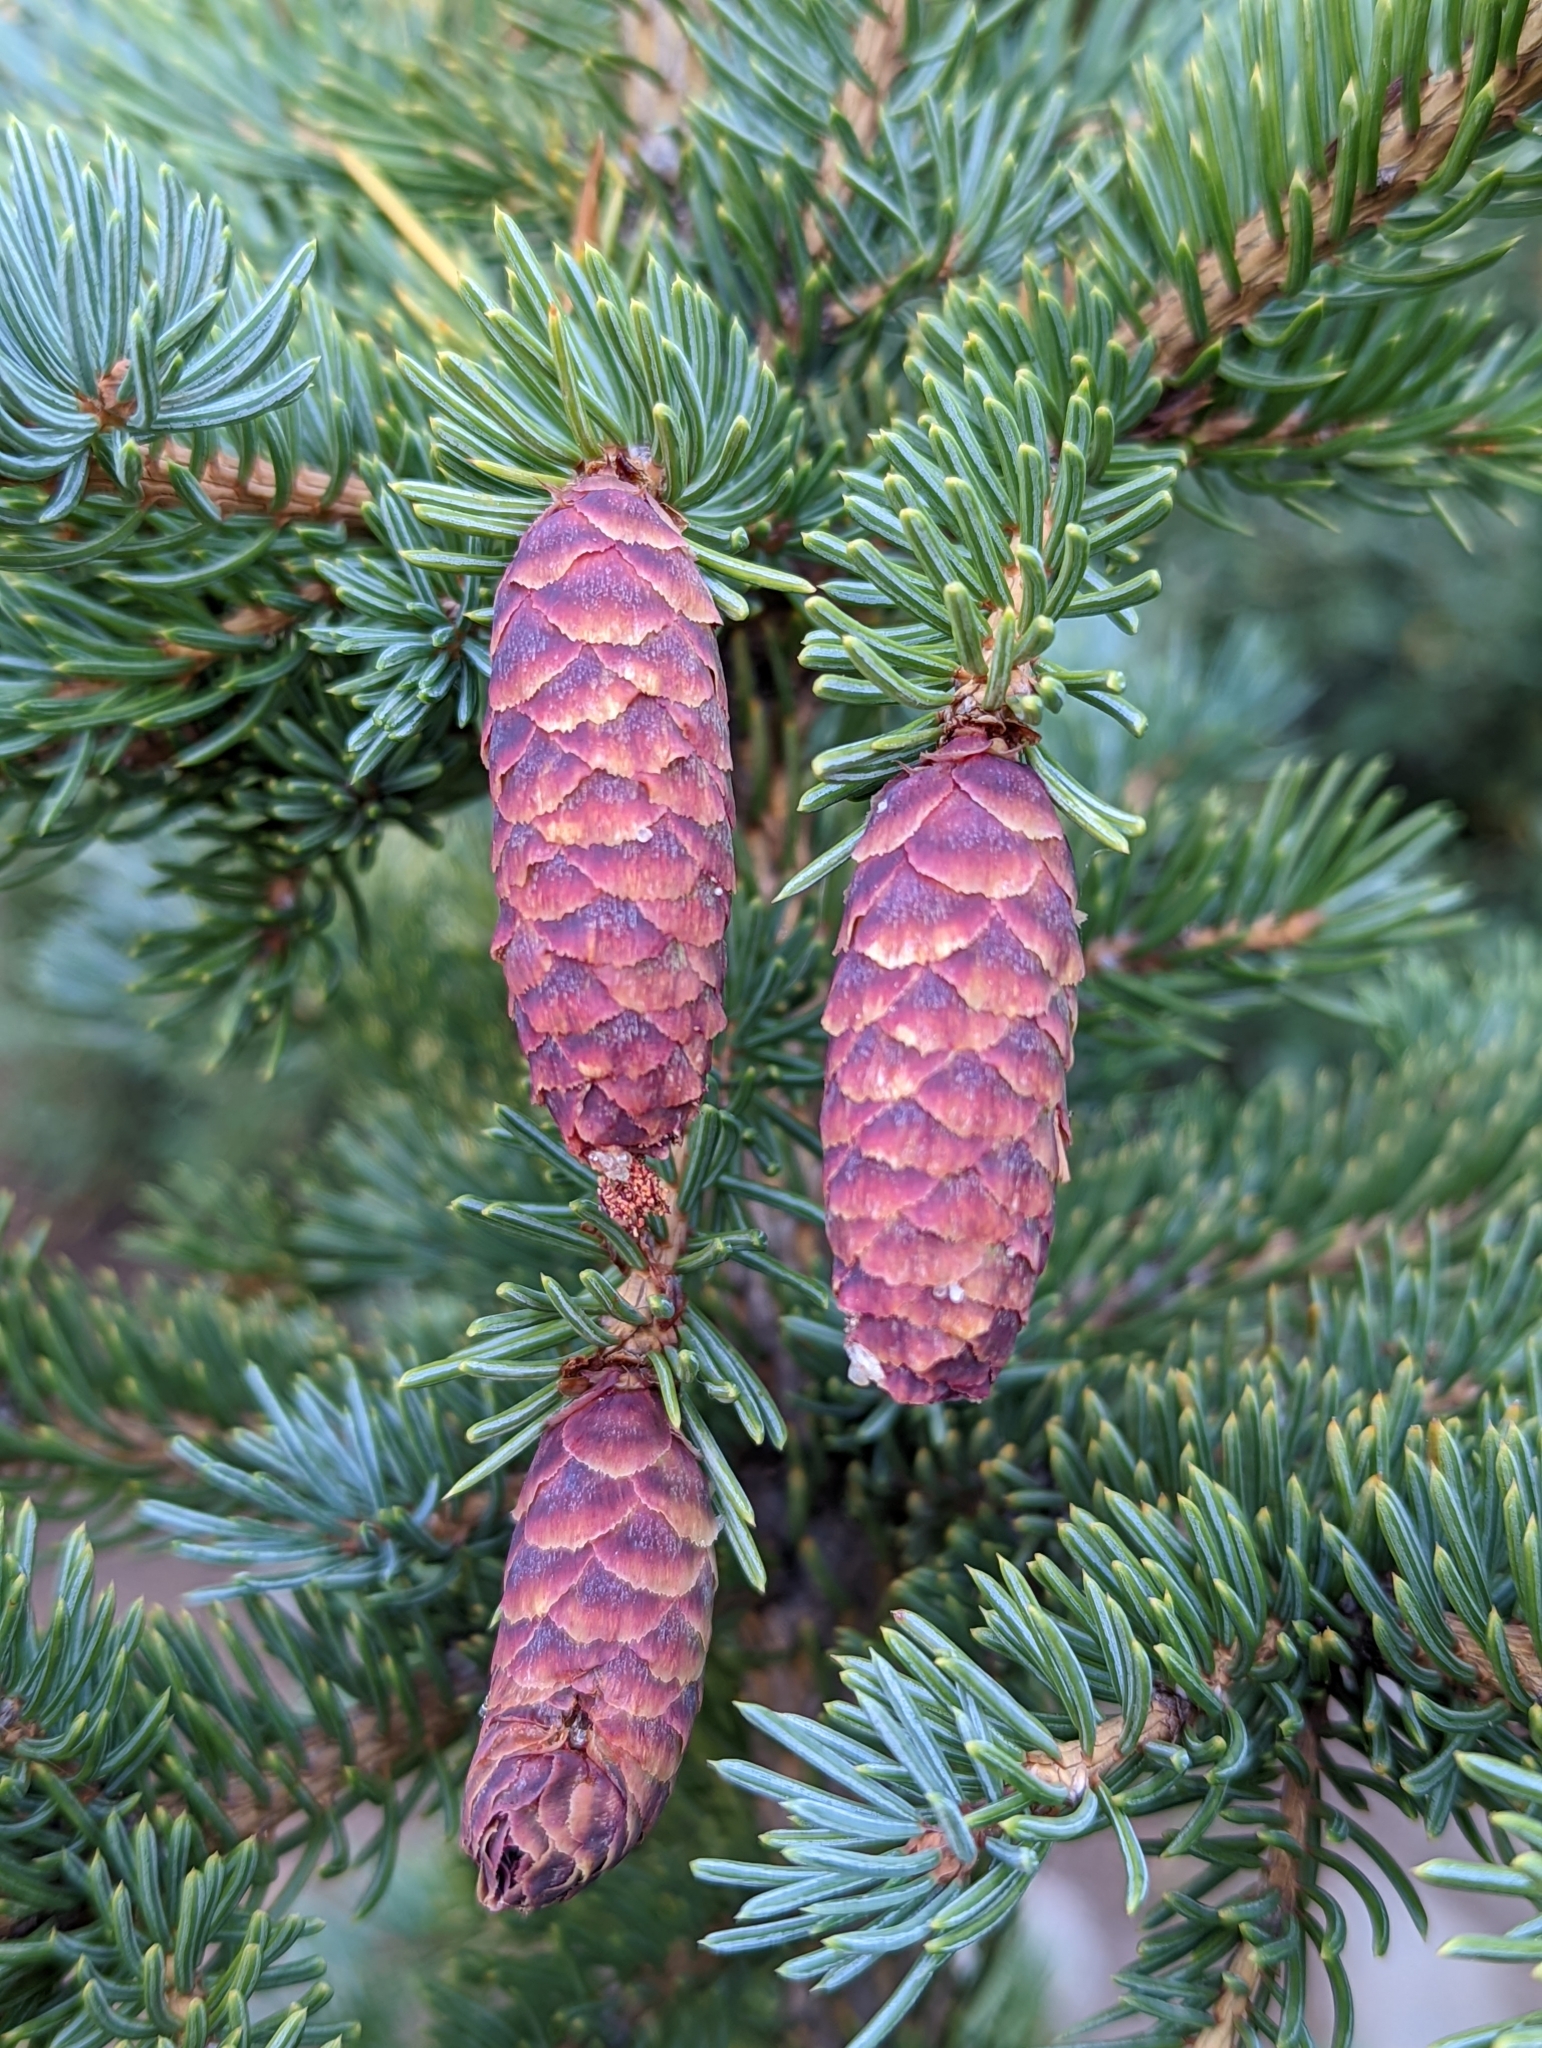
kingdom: Plantae
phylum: Tracheophyta
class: Pinopsida
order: Pinales
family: Pinaceae
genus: Picea
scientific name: Picea engelmannii
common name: Engelmann spruce
